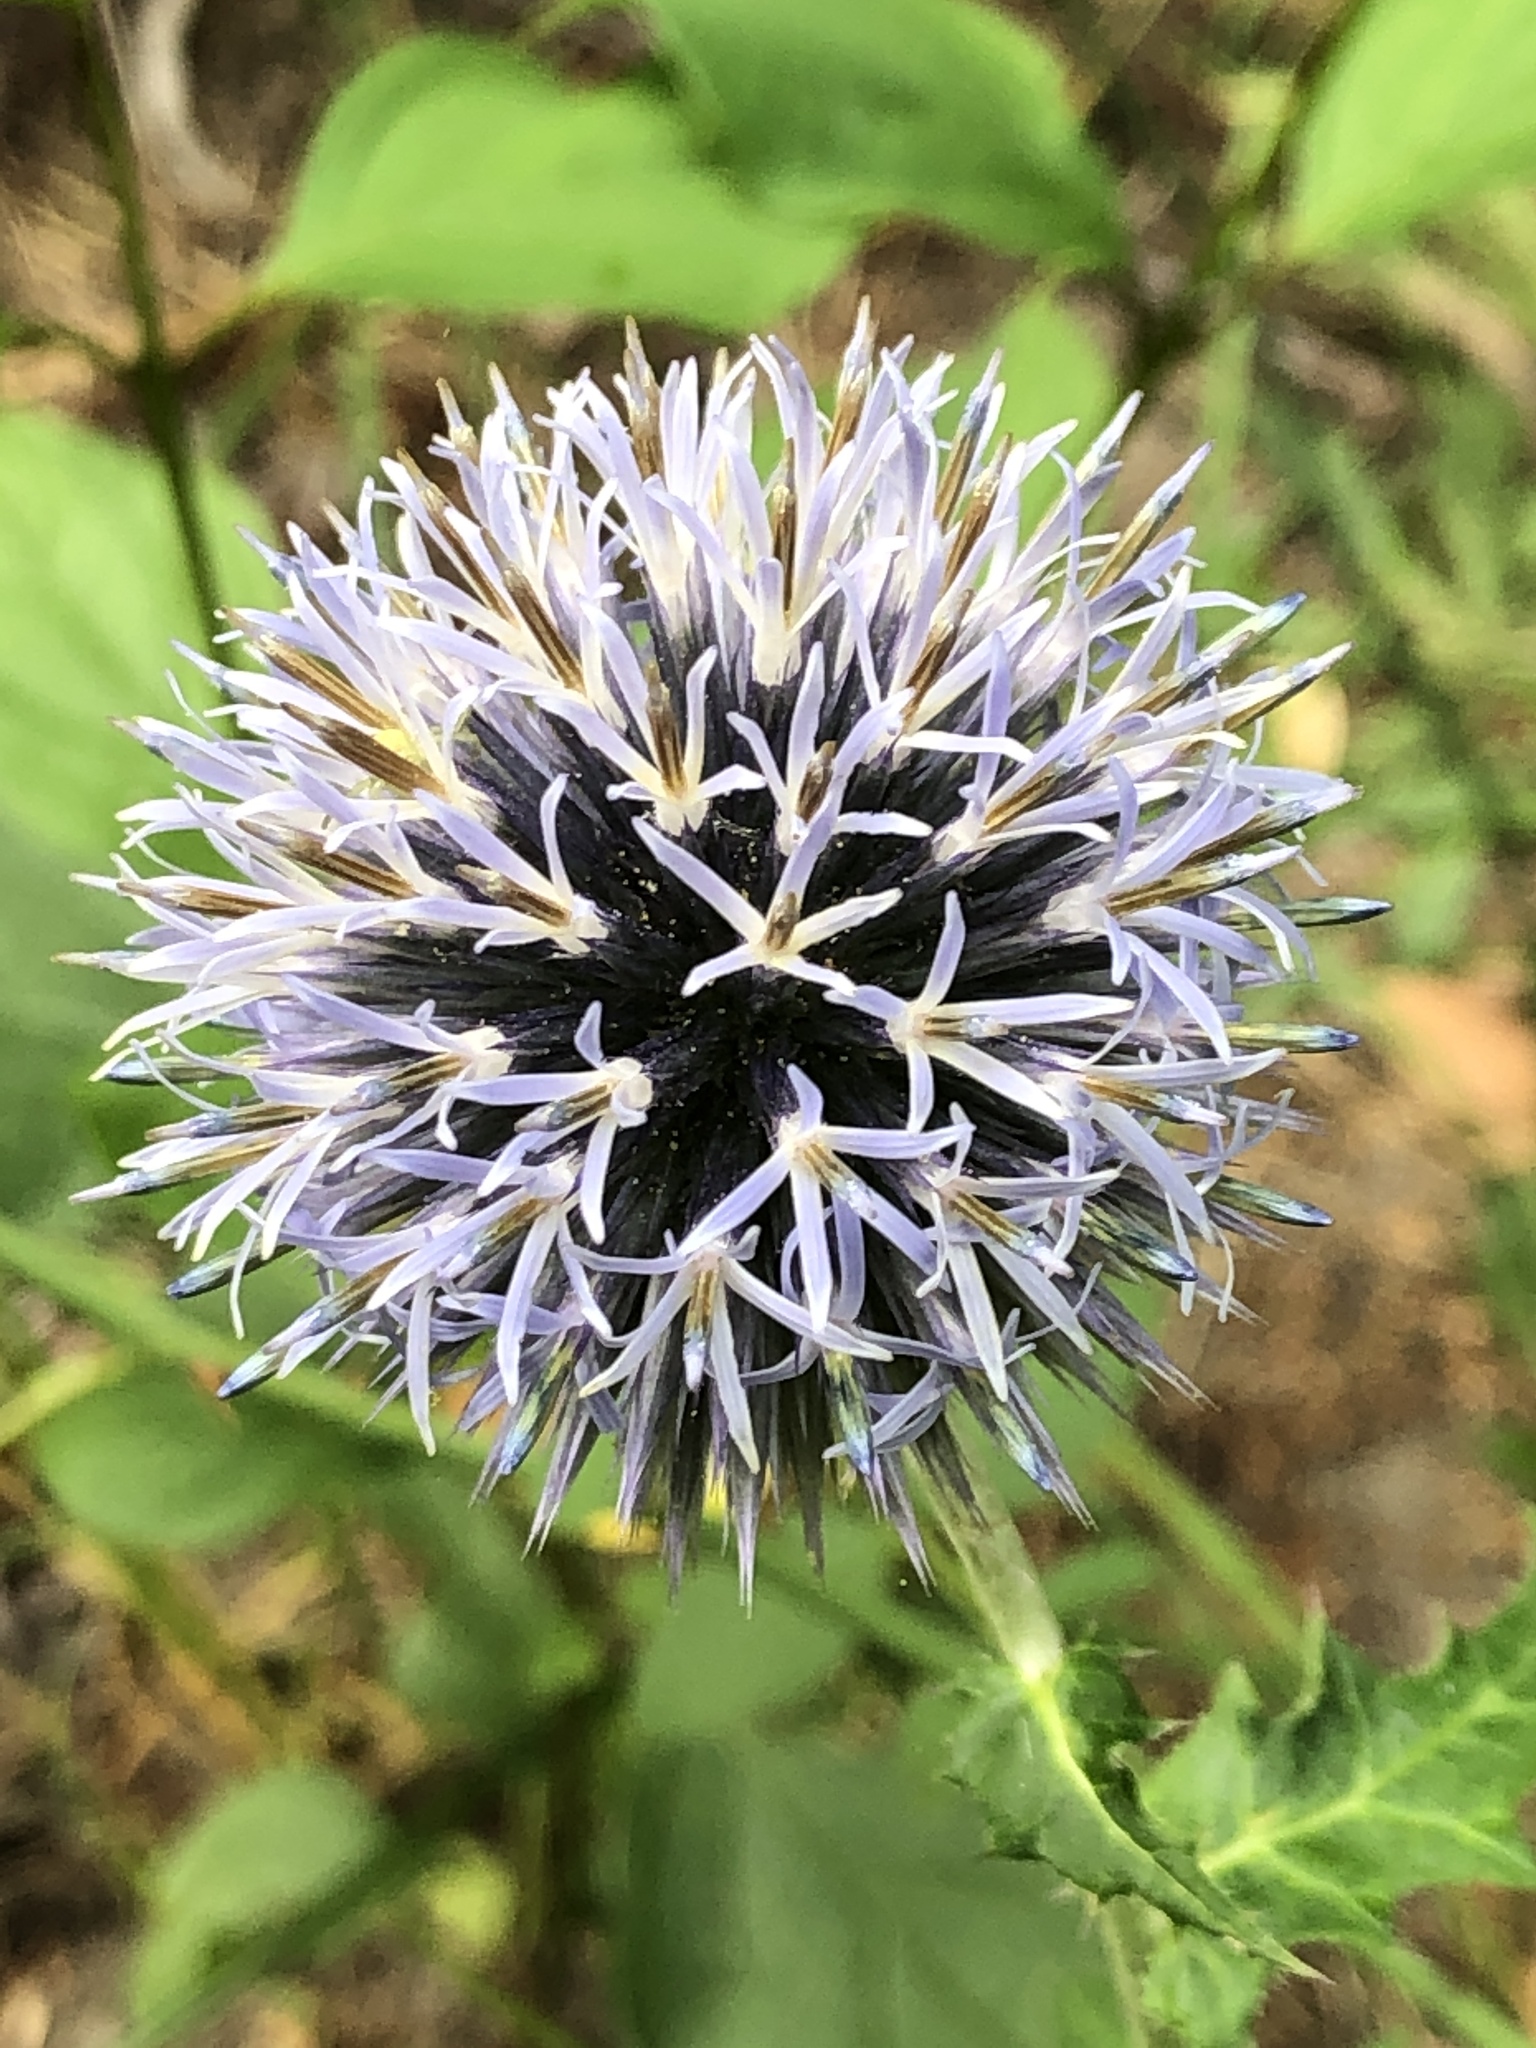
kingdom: Plantae
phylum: Tracheophyta
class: Magnoliopsida
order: Asterales
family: Asteraceae
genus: Echinops
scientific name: Echinops sphaerocephalus
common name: Glandular globe-thistle
